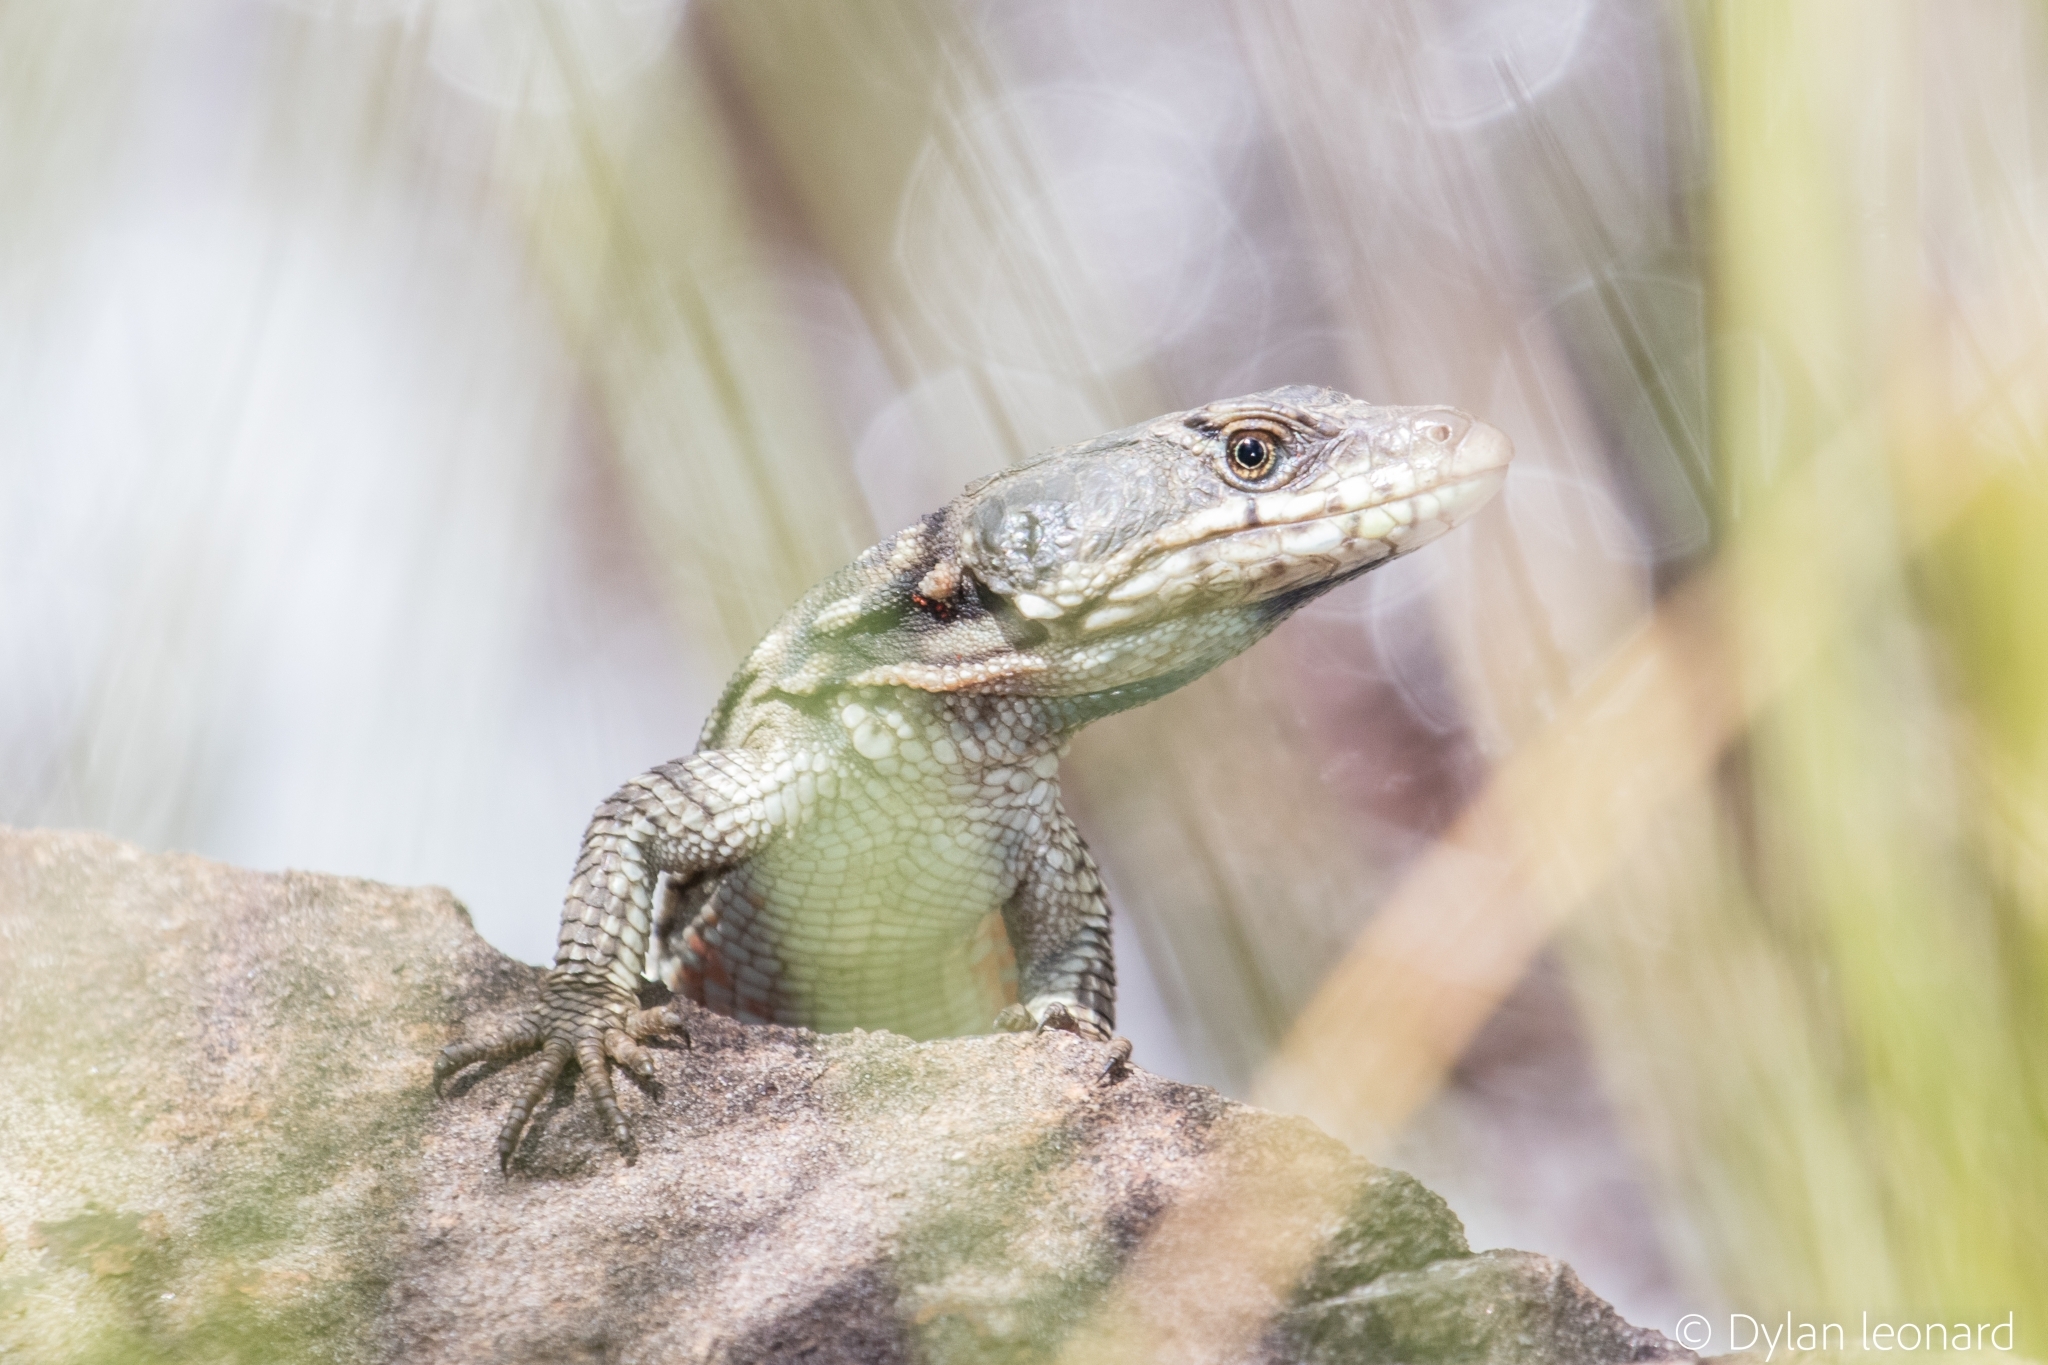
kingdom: Animalia
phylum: Chordata
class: Squamata
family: Cordylidae
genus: Pseudocordylus
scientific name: Pseudocordylus subviridis
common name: Drakensberg crag lizard
